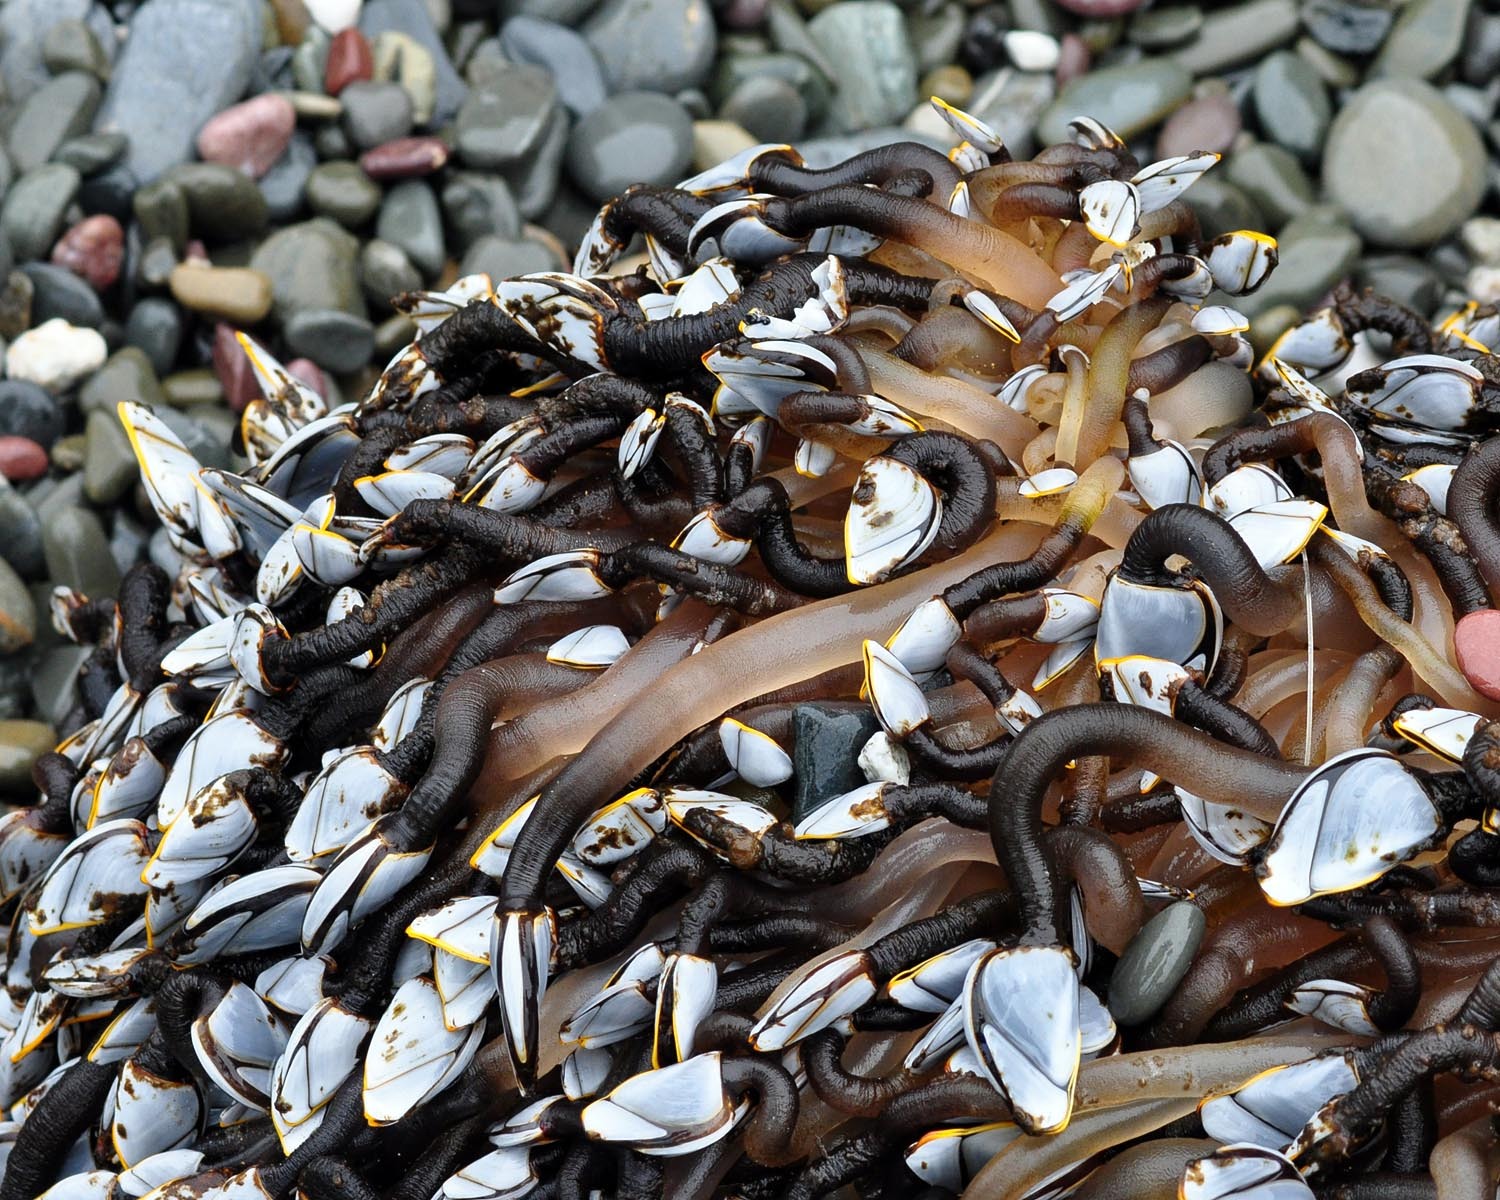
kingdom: Animalia
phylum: Arthropoda
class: Maxillopoda
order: Pedunculata
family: Lepadidae
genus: Lepas
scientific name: Lepas anatifera
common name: Common goose barnacle
